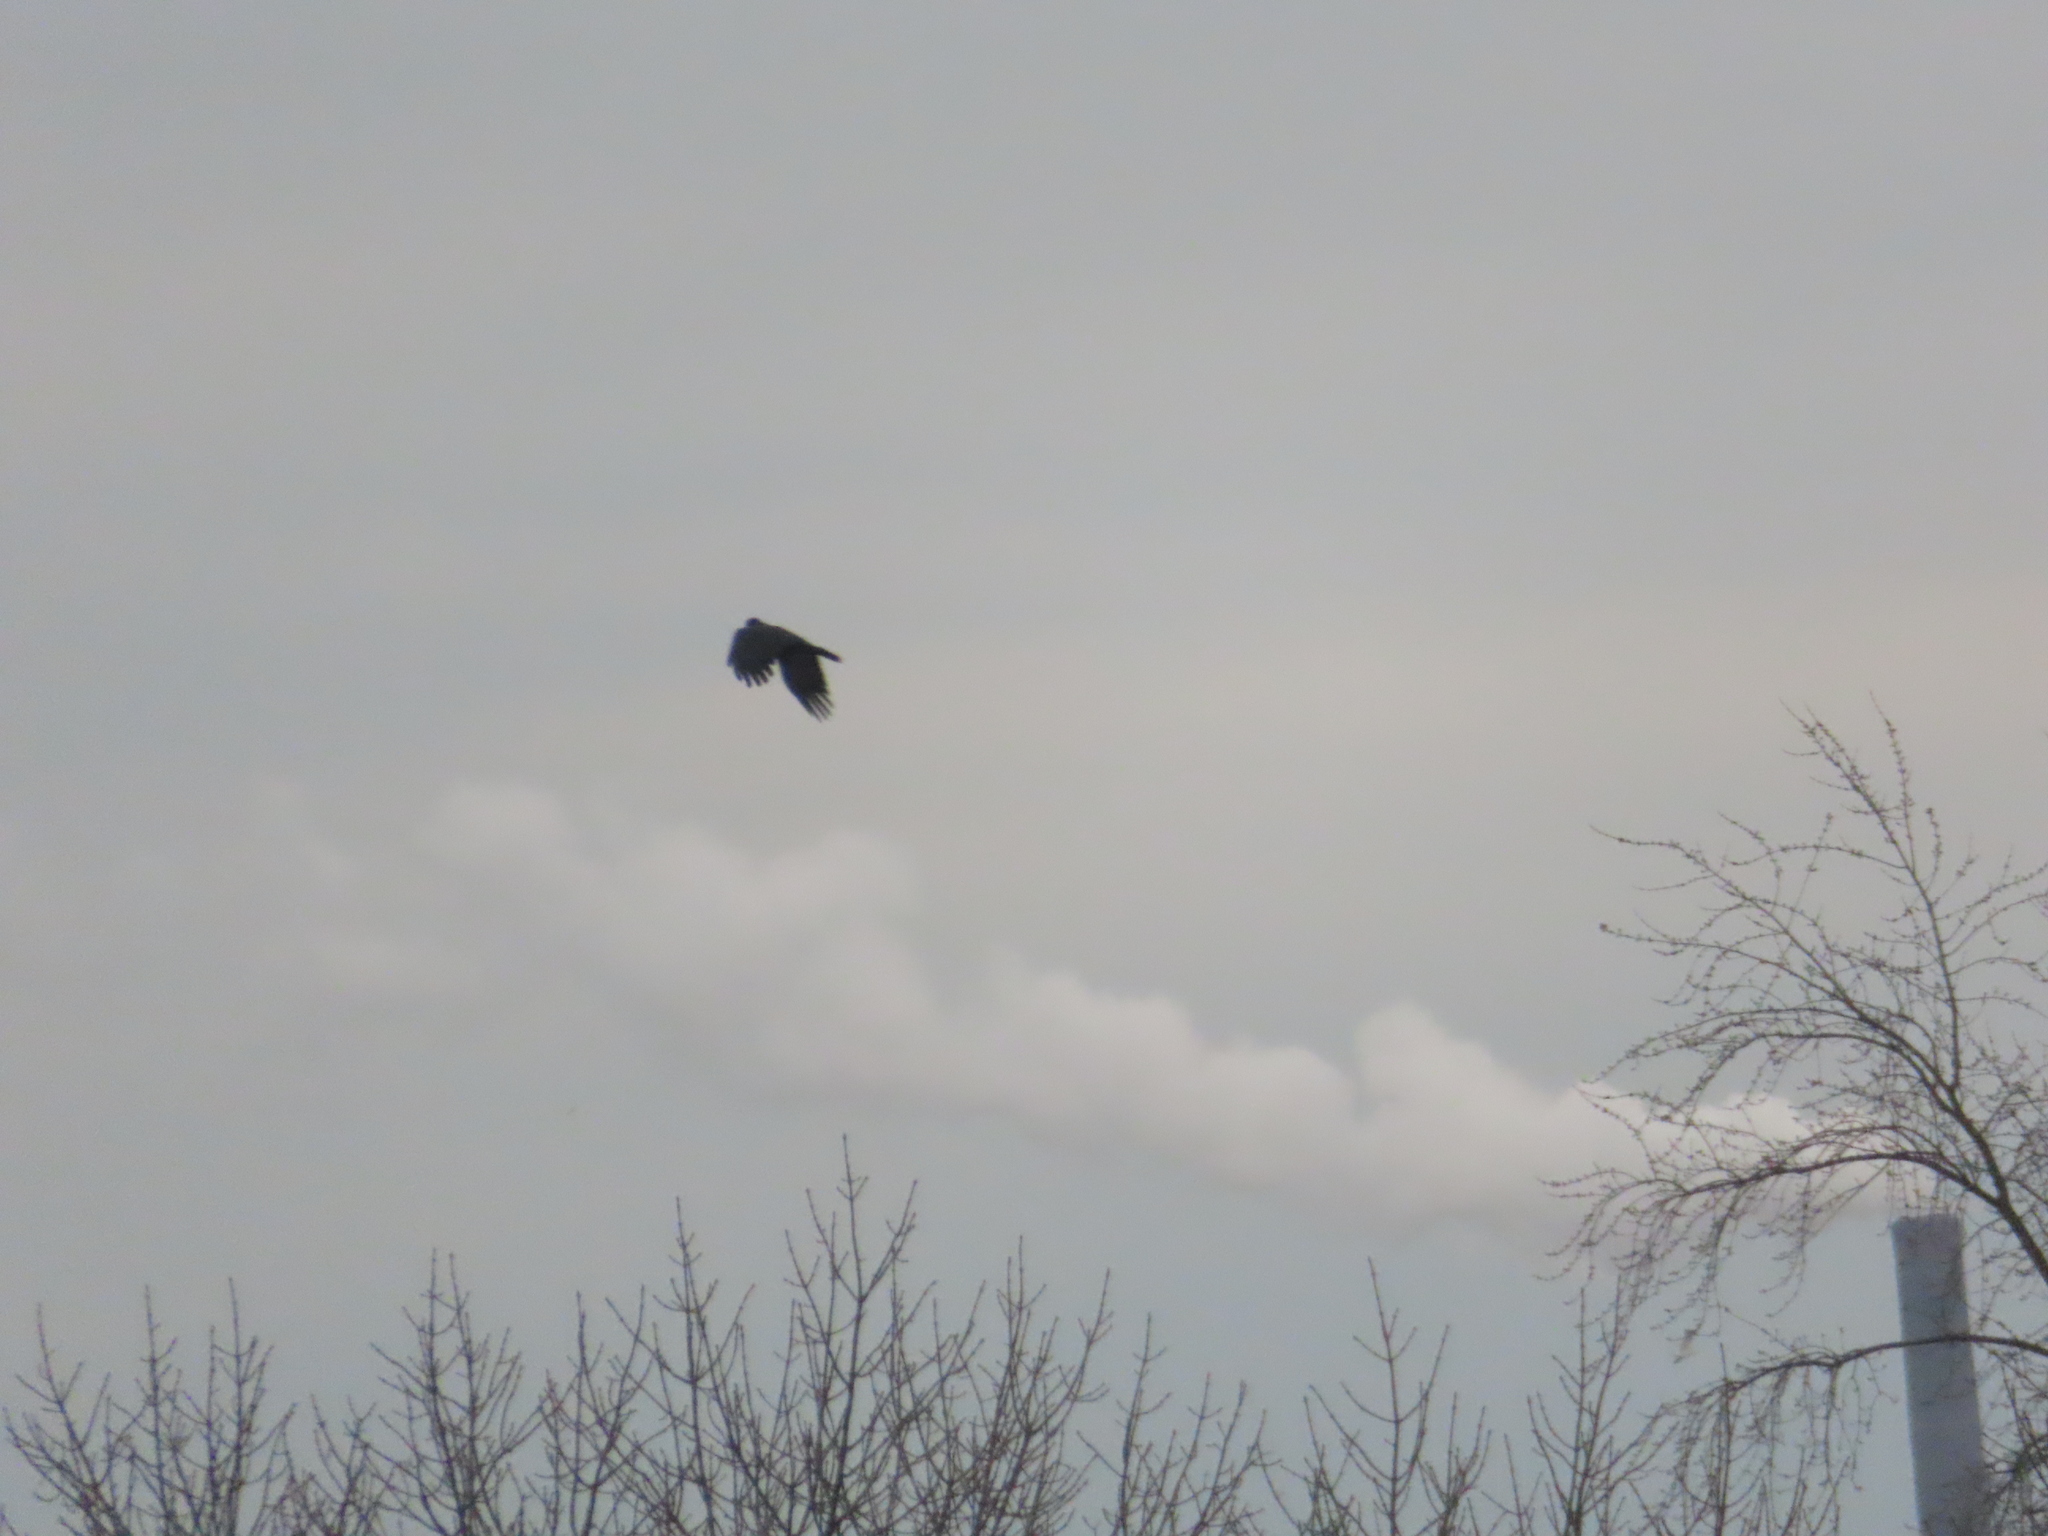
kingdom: Animalia
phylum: Chordata
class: Aves
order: Passeriformes
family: Corvidae
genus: Corvus
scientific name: Corvus brachyrhynchos
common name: American crow
